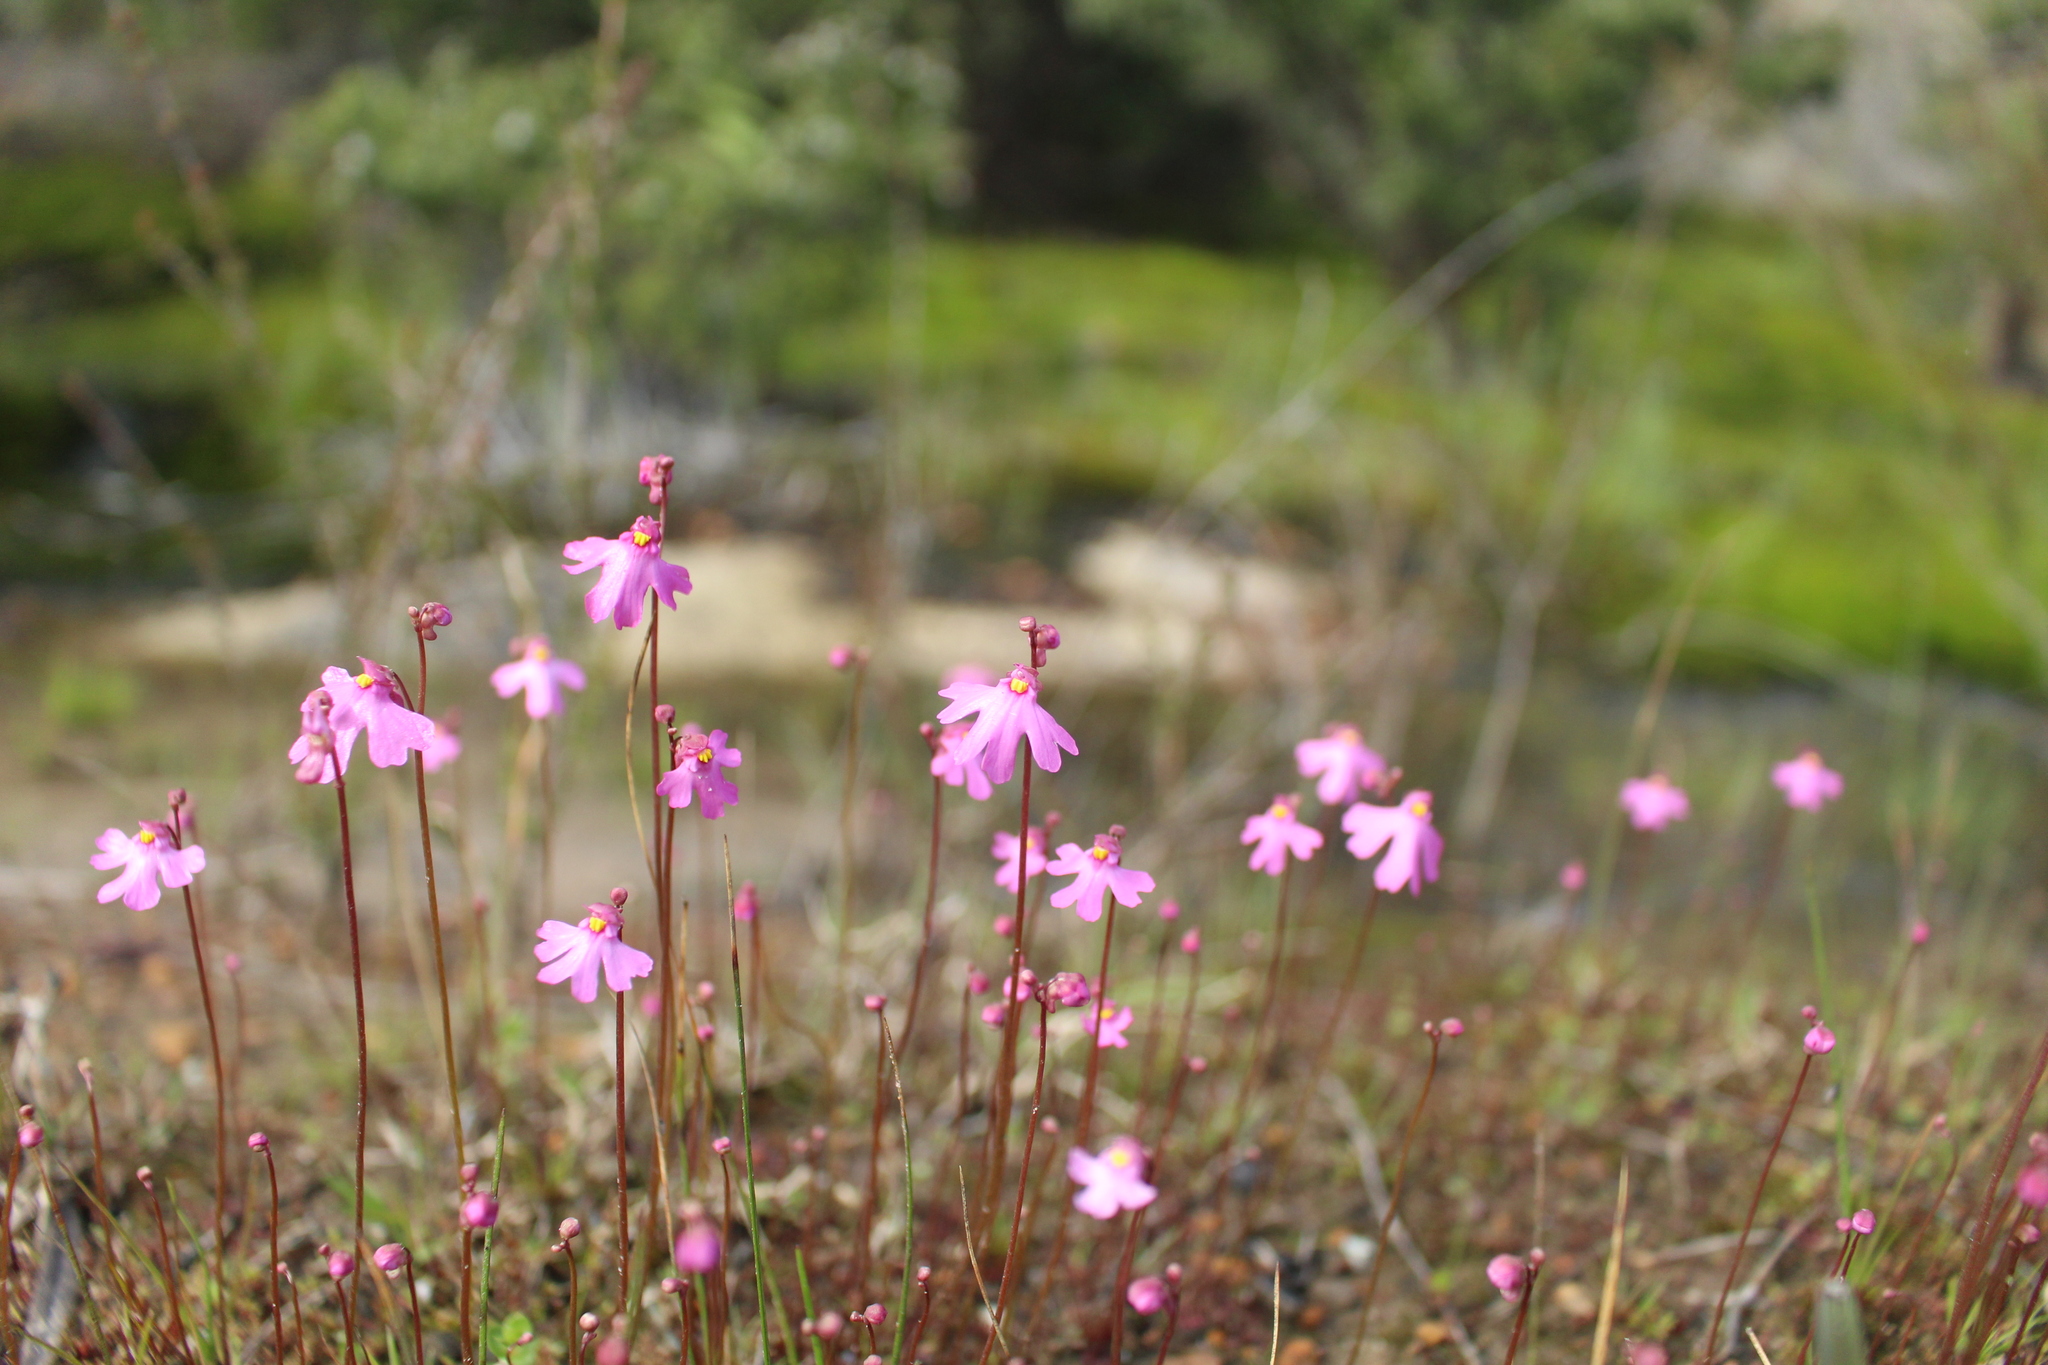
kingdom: Plantae
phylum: Tracheophyta
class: Magnoliopsida
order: Lamiales
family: Lentibulariaceae
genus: Utricularia
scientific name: Utricularia multifida
